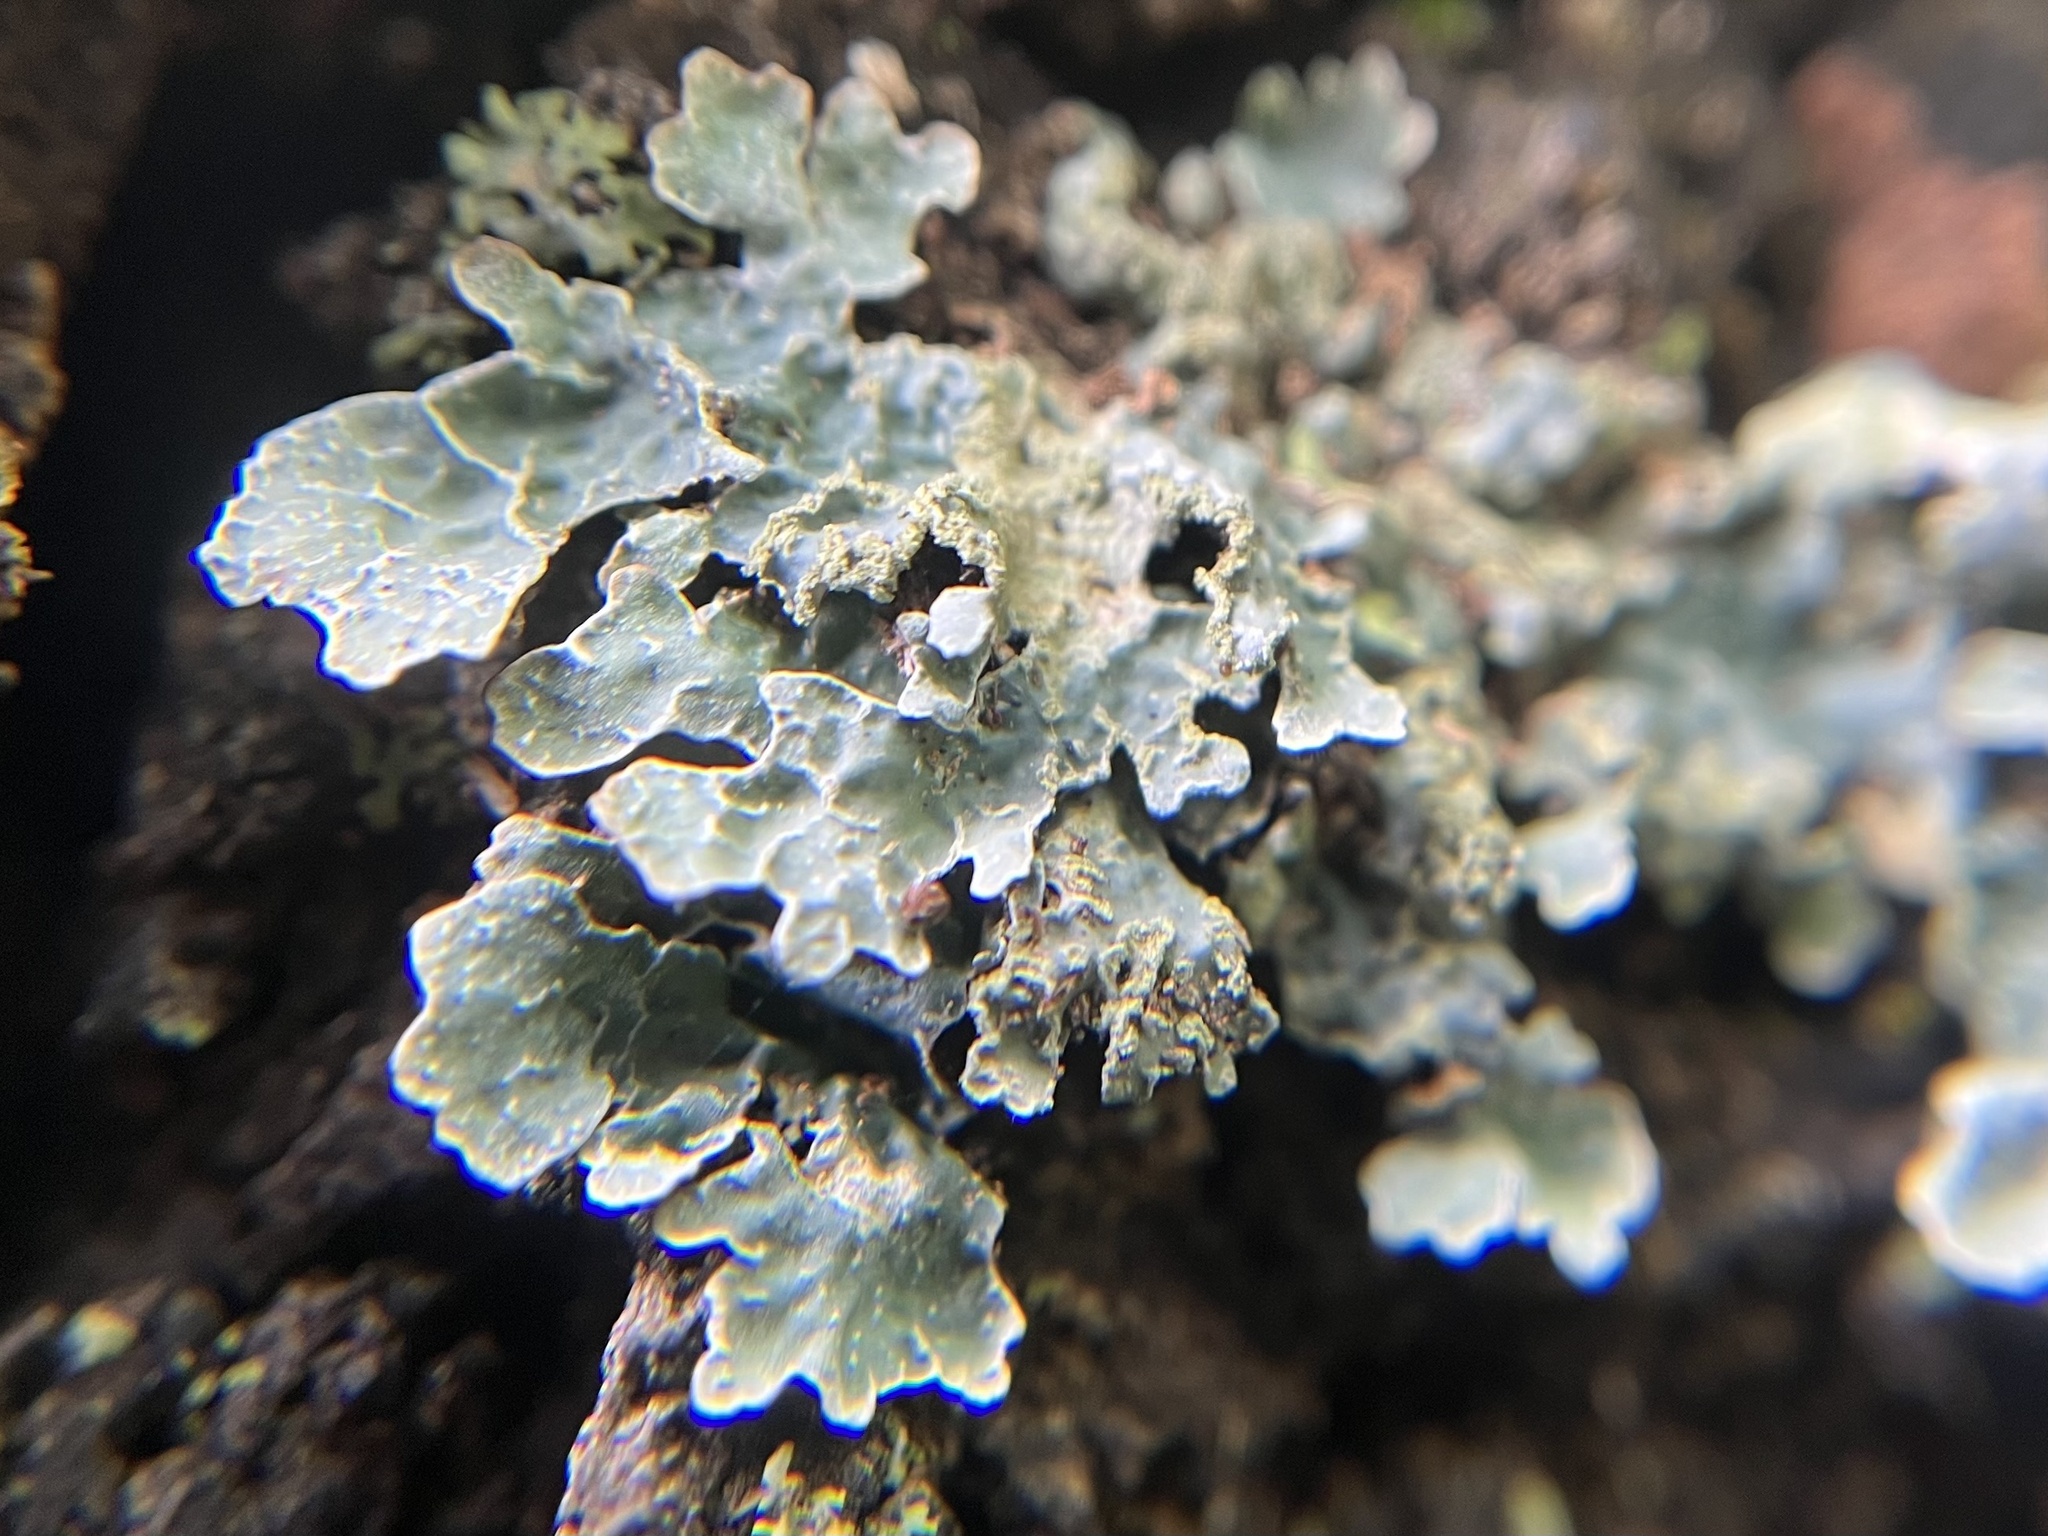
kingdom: Fungi
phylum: Ascomycota
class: Lecanoromycetes
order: Lecanorales
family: Parmeliaceae
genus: Parmelia
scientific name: Parmelia sulcata
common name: Netted shield lichen
